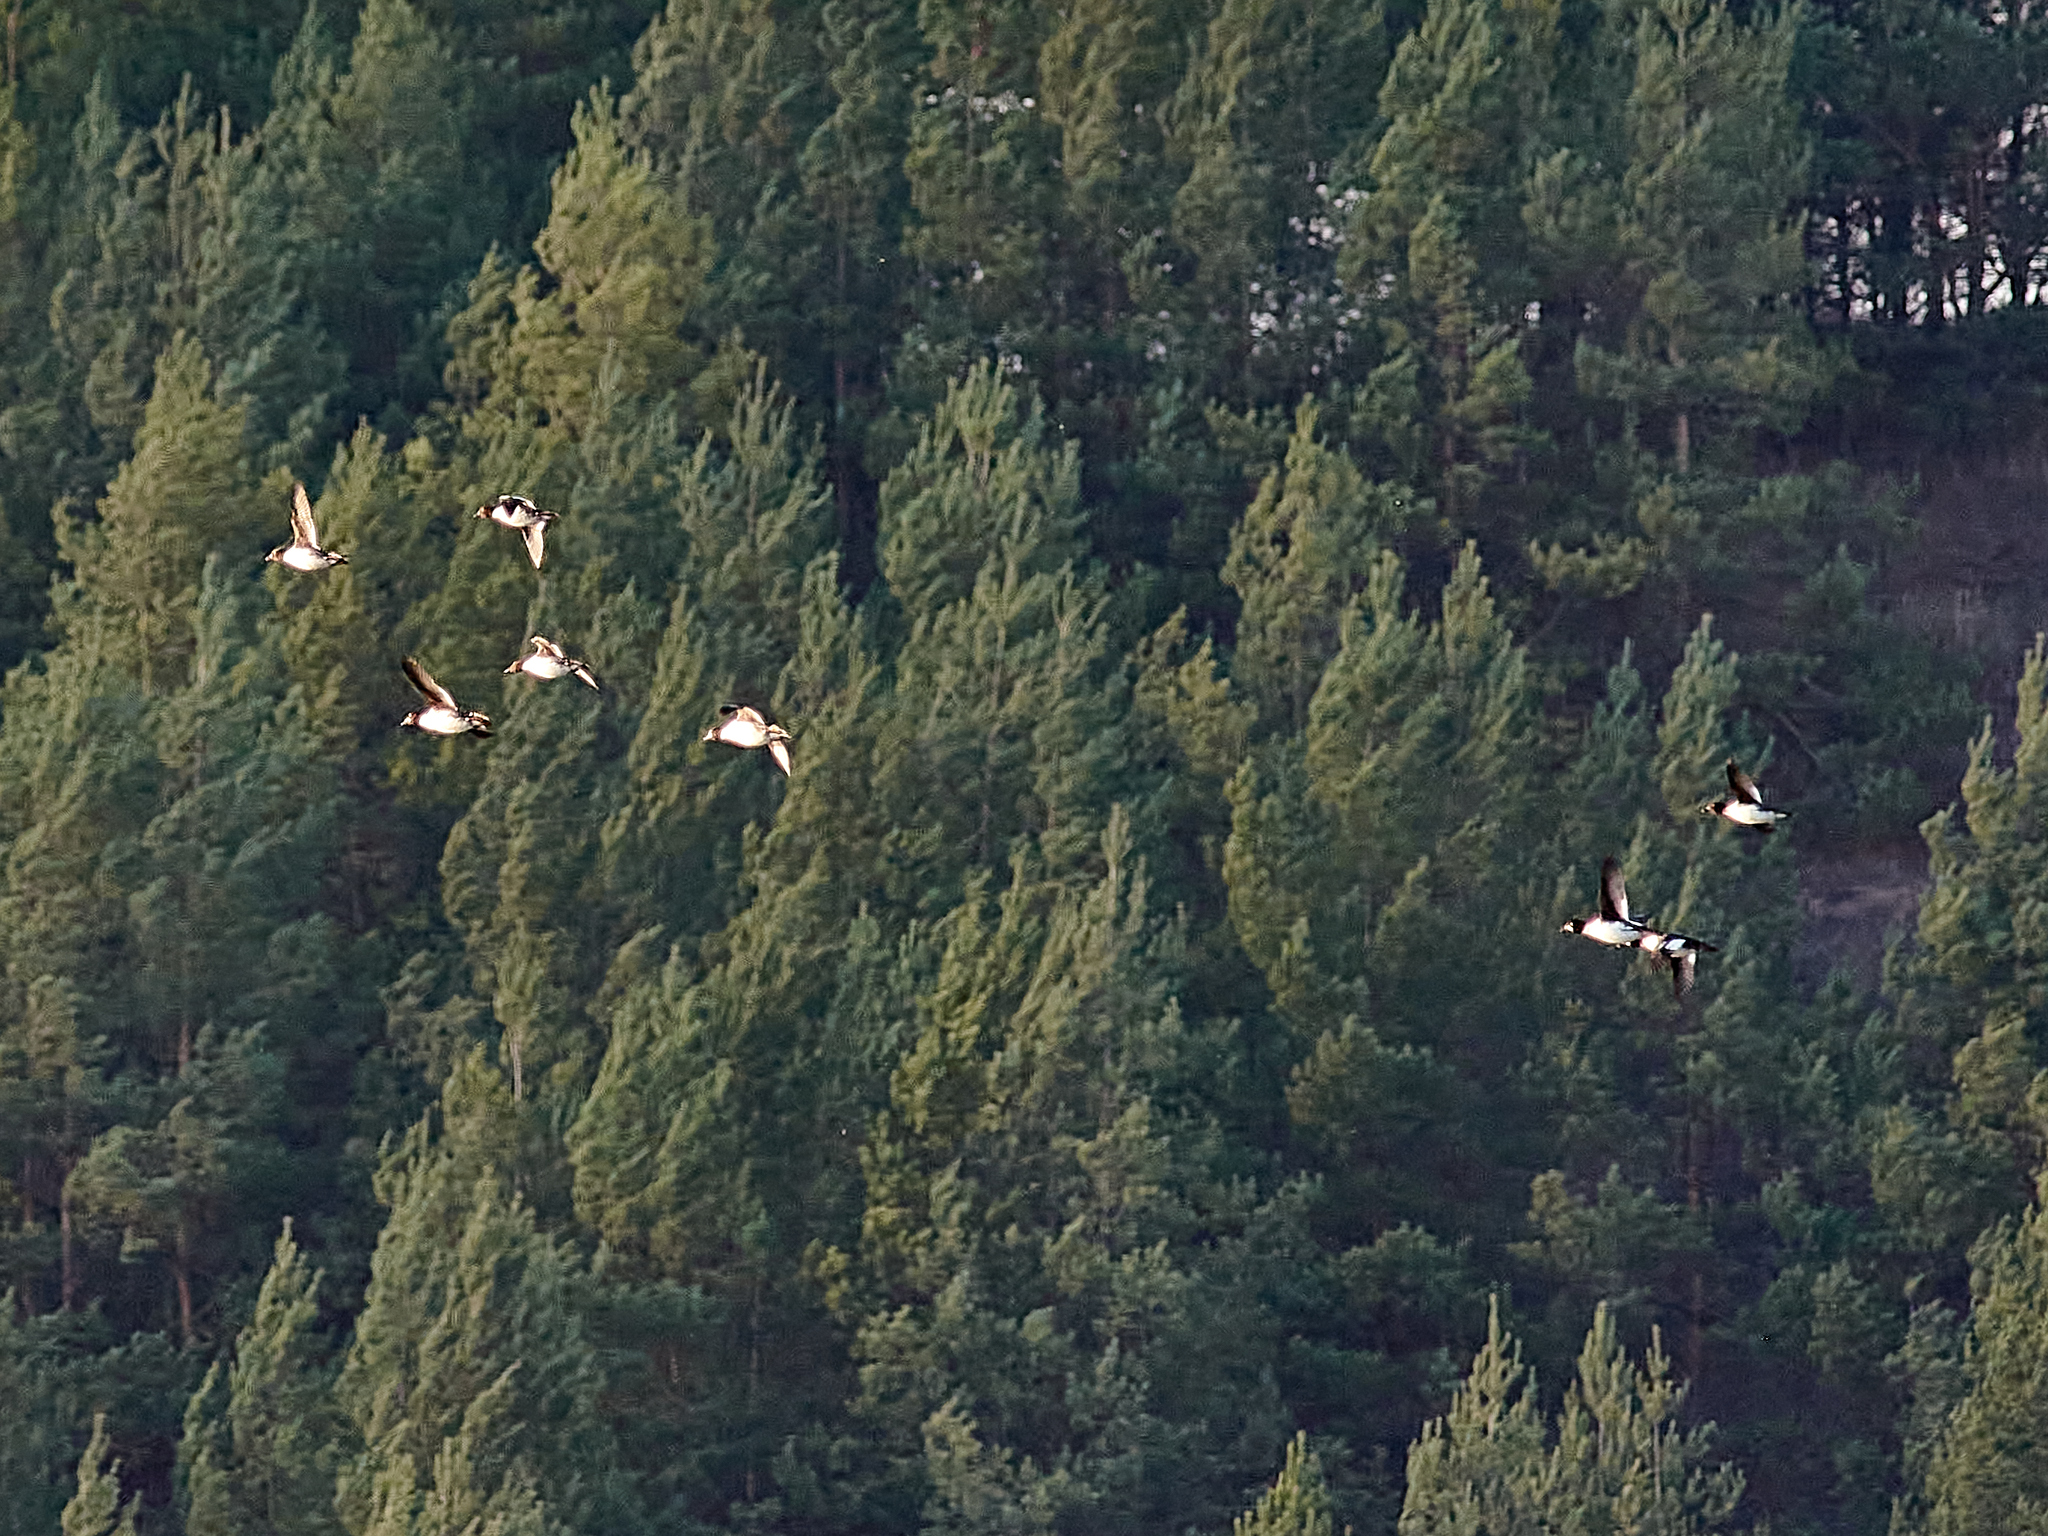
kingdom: Animalia
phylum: Chordata
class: Aves
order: Anseriformes
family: Anatidae
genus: Bucephala
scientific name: Bucephala clangula
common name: Common goldeneye
